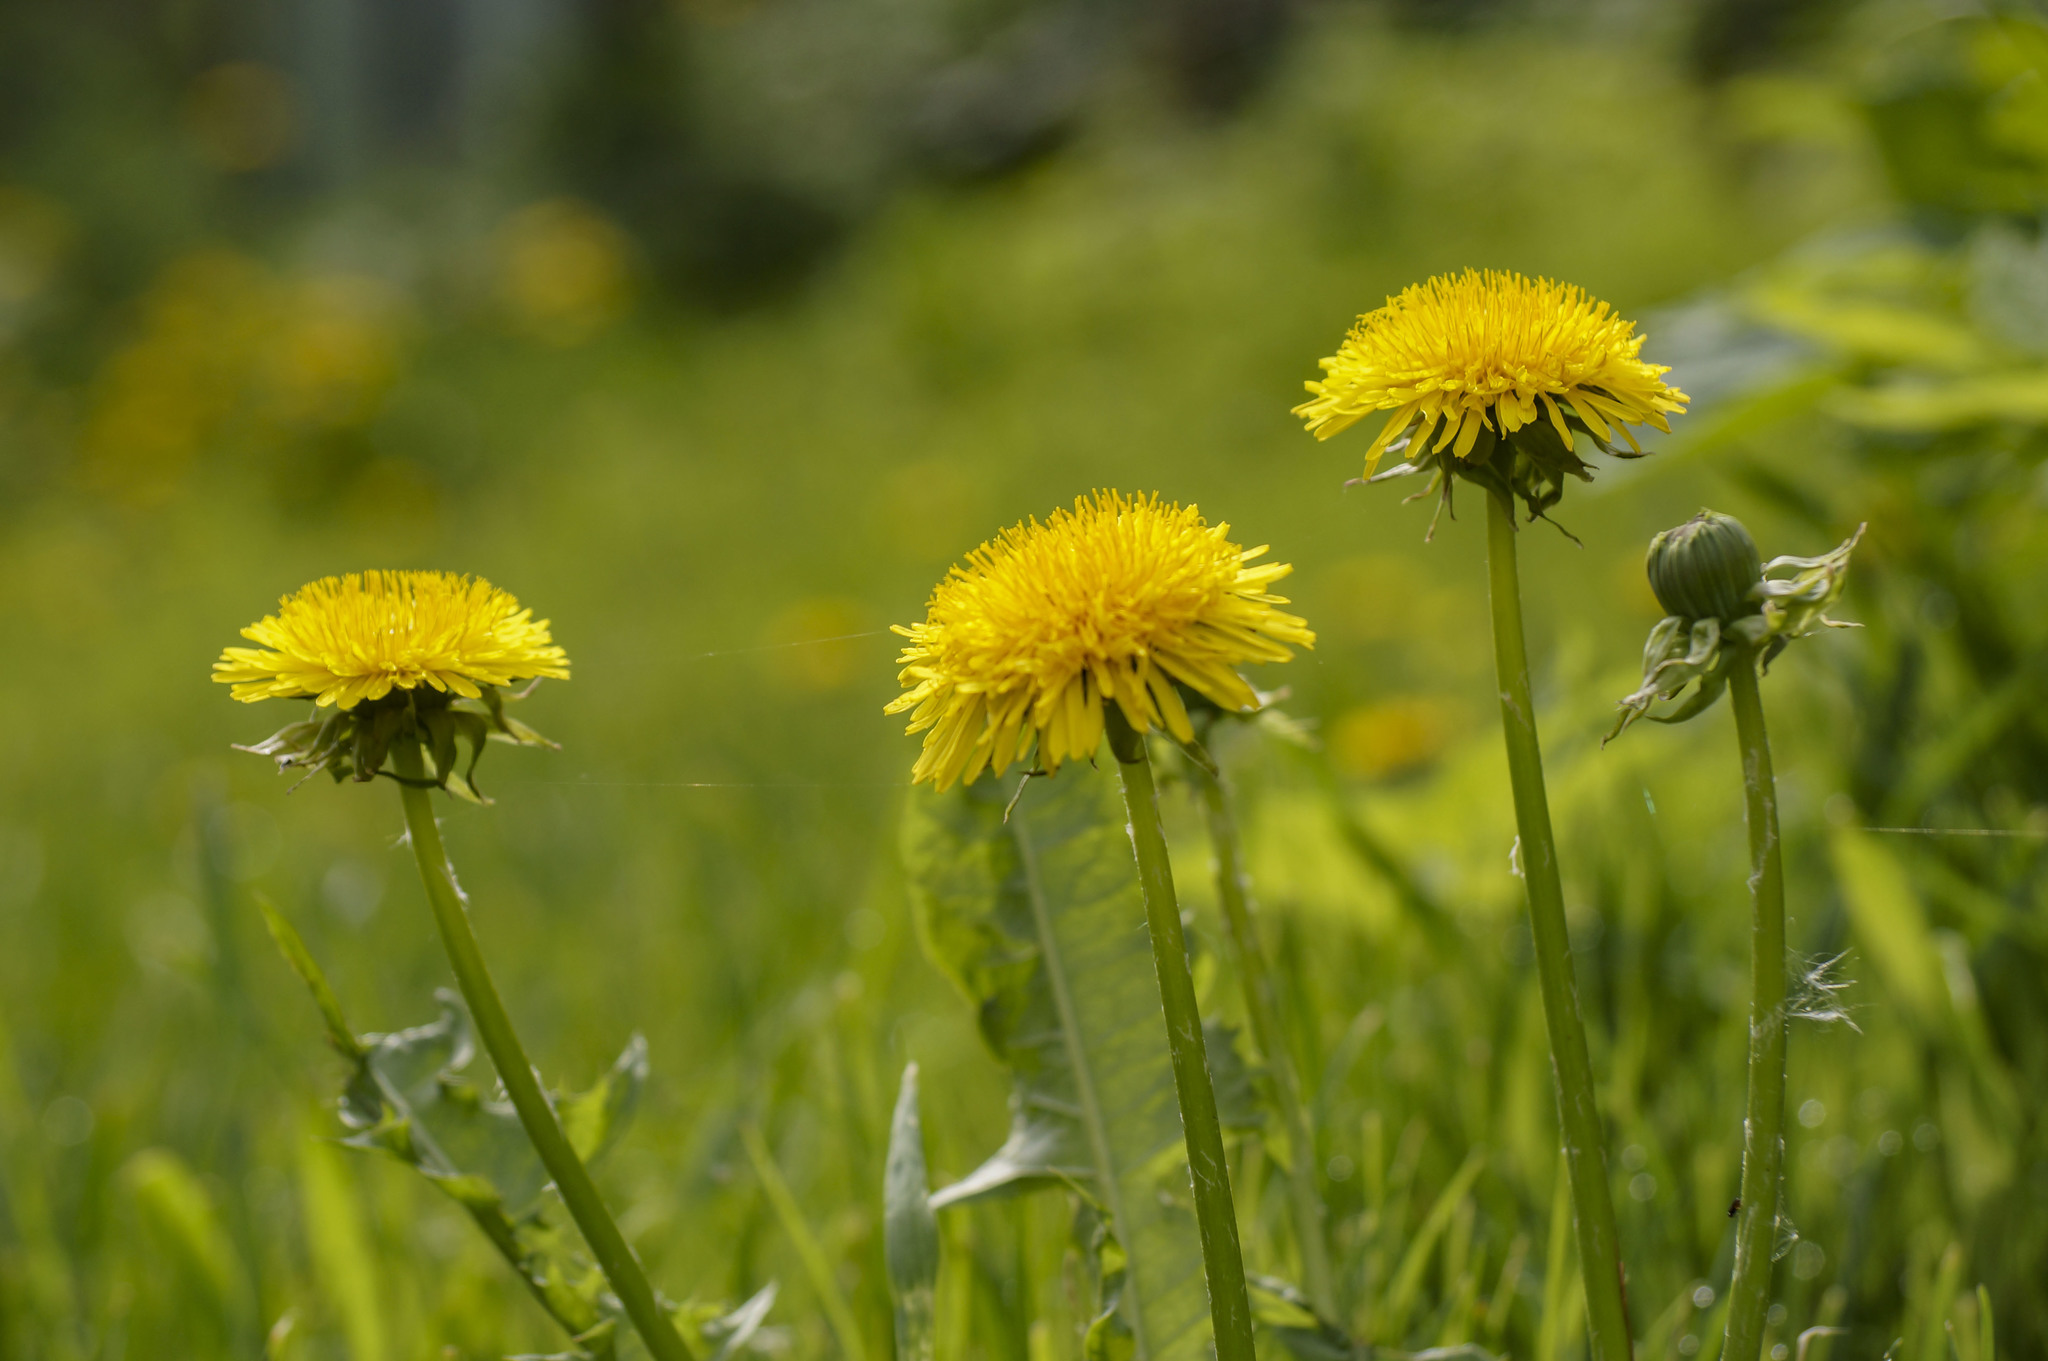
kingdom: Plantae
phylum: Tracheophyta
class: Magnoliopsida
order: Asterales
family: Asteraceae
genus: Taraxacum
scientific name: Taraxacum officinale
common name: Common dandelion
